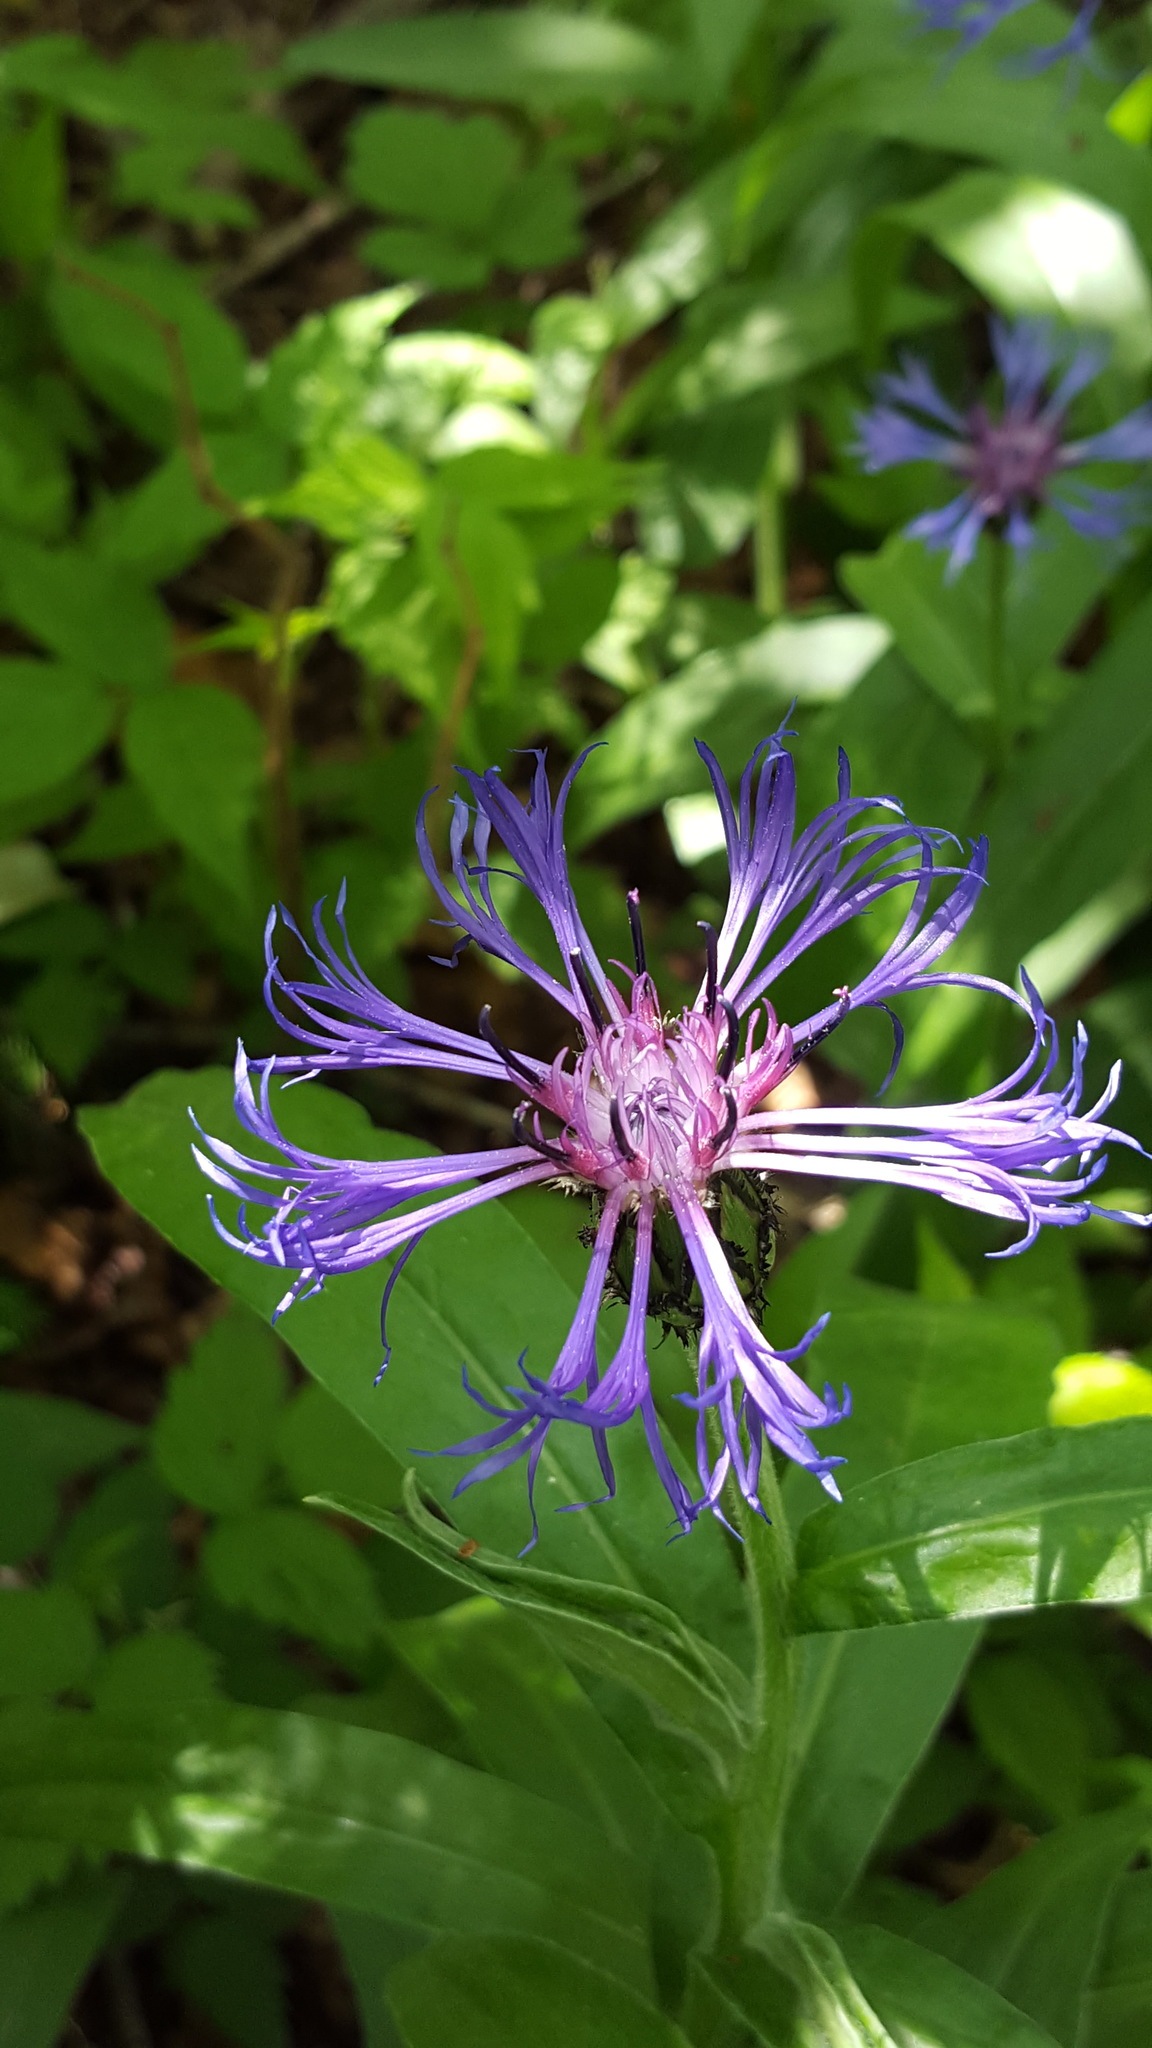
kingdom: Plantae
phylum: Tracheophyta
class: Magnoliopsida
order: Asterales
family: Asteraceae
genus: Centaurea
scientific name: Centaurea montana
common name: Perennial cornflower
